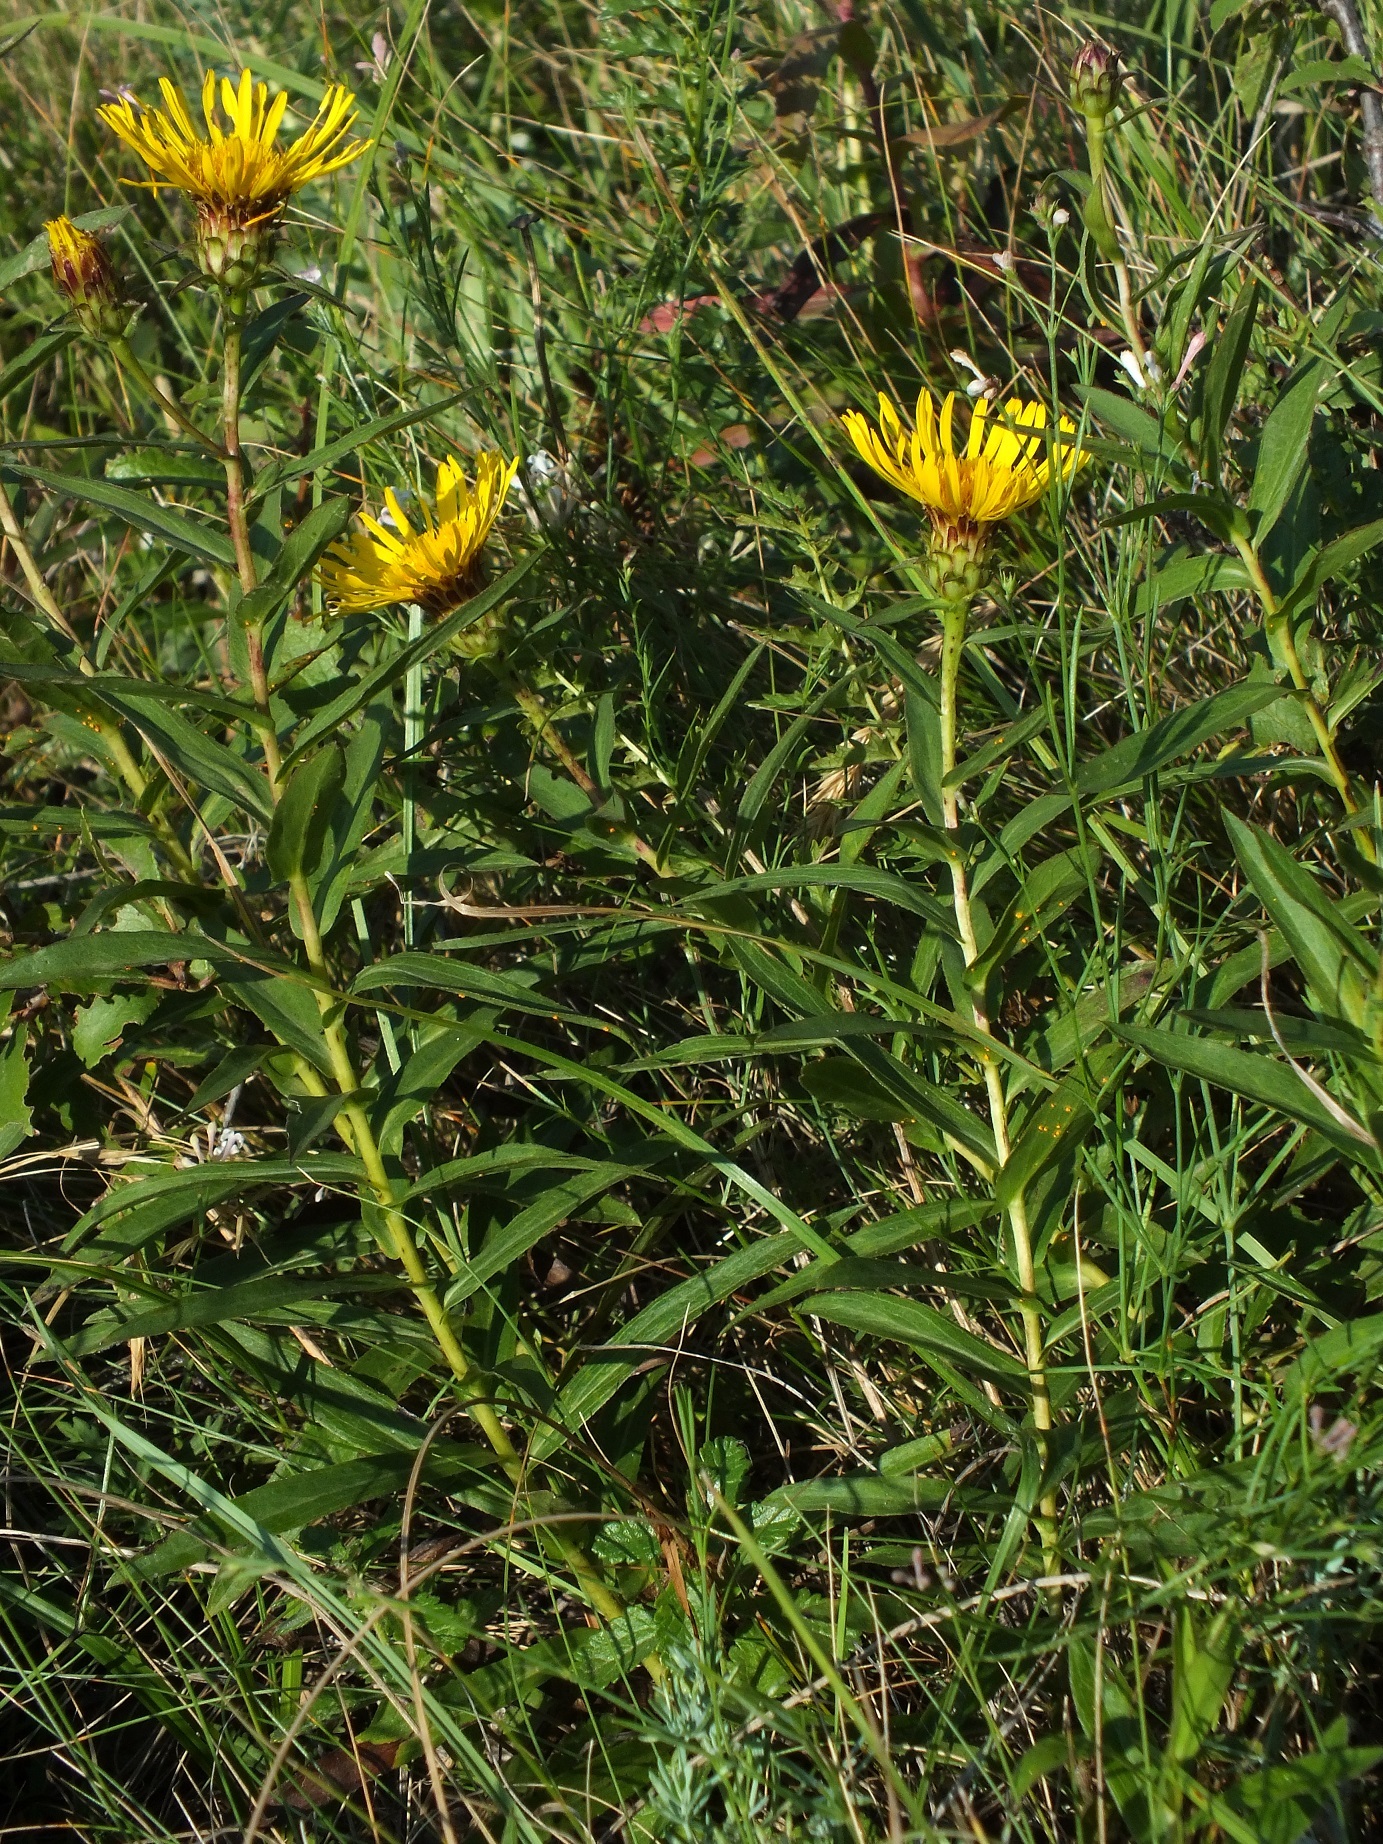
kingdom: Plantae
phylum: Tracheophyta
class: Magnoliopsida
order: Asterales
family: Asteraceae
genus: Pentanema
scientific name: Pentanema ensifolium
